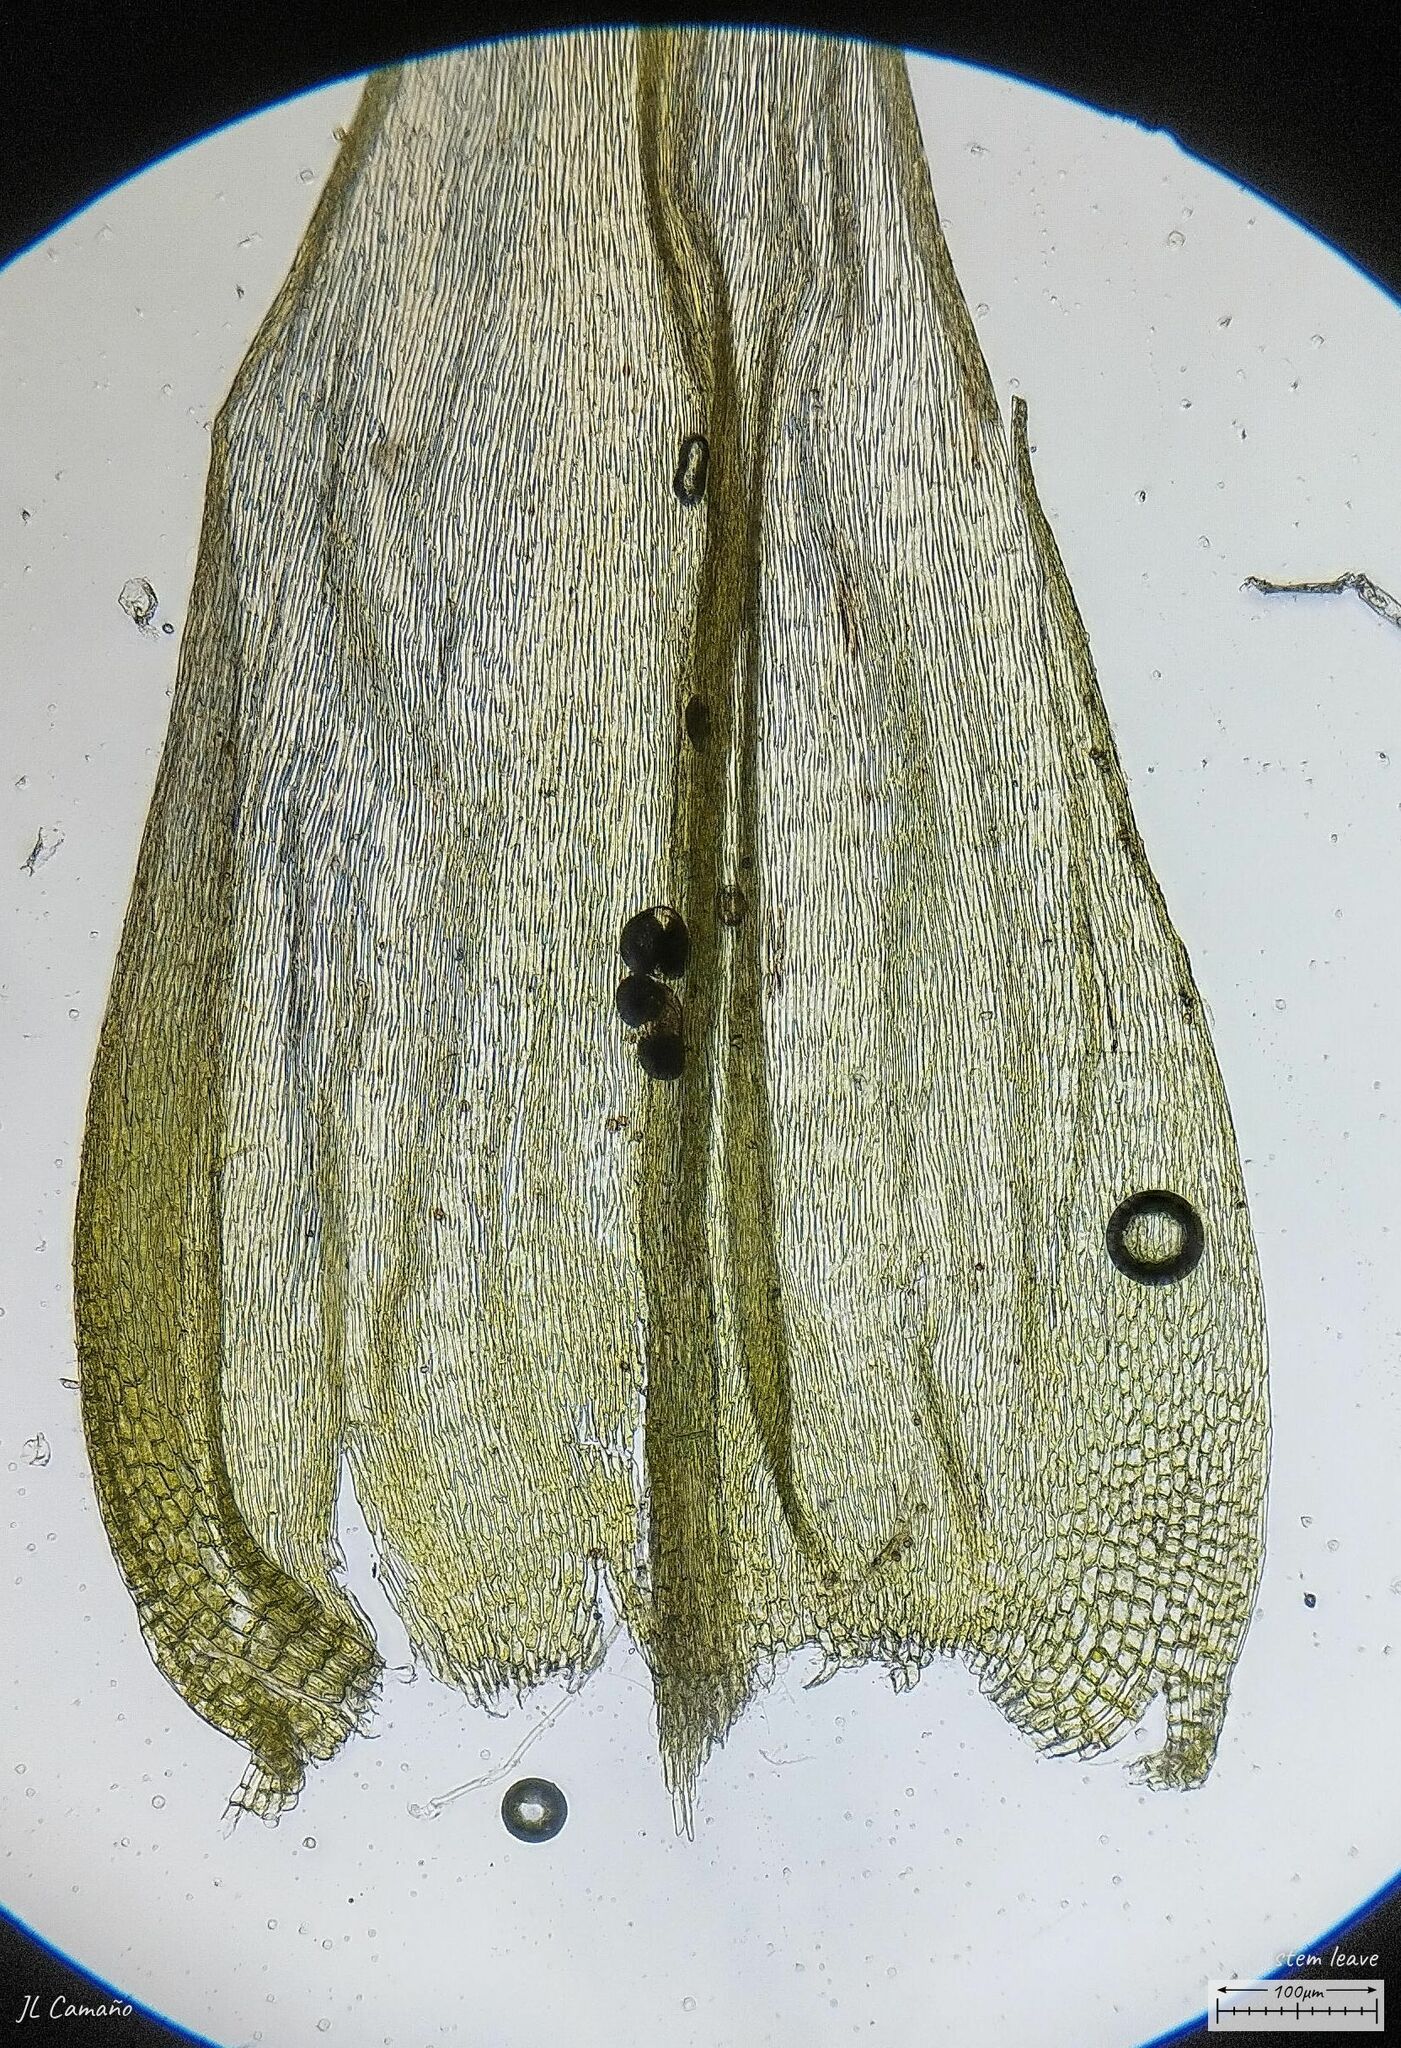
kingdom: Plantae
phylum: Bryophyta
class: Bryopsida
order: Hypnales
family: Brachytheciaceae
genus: Homalothecium
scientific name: Homalothecium aureum
